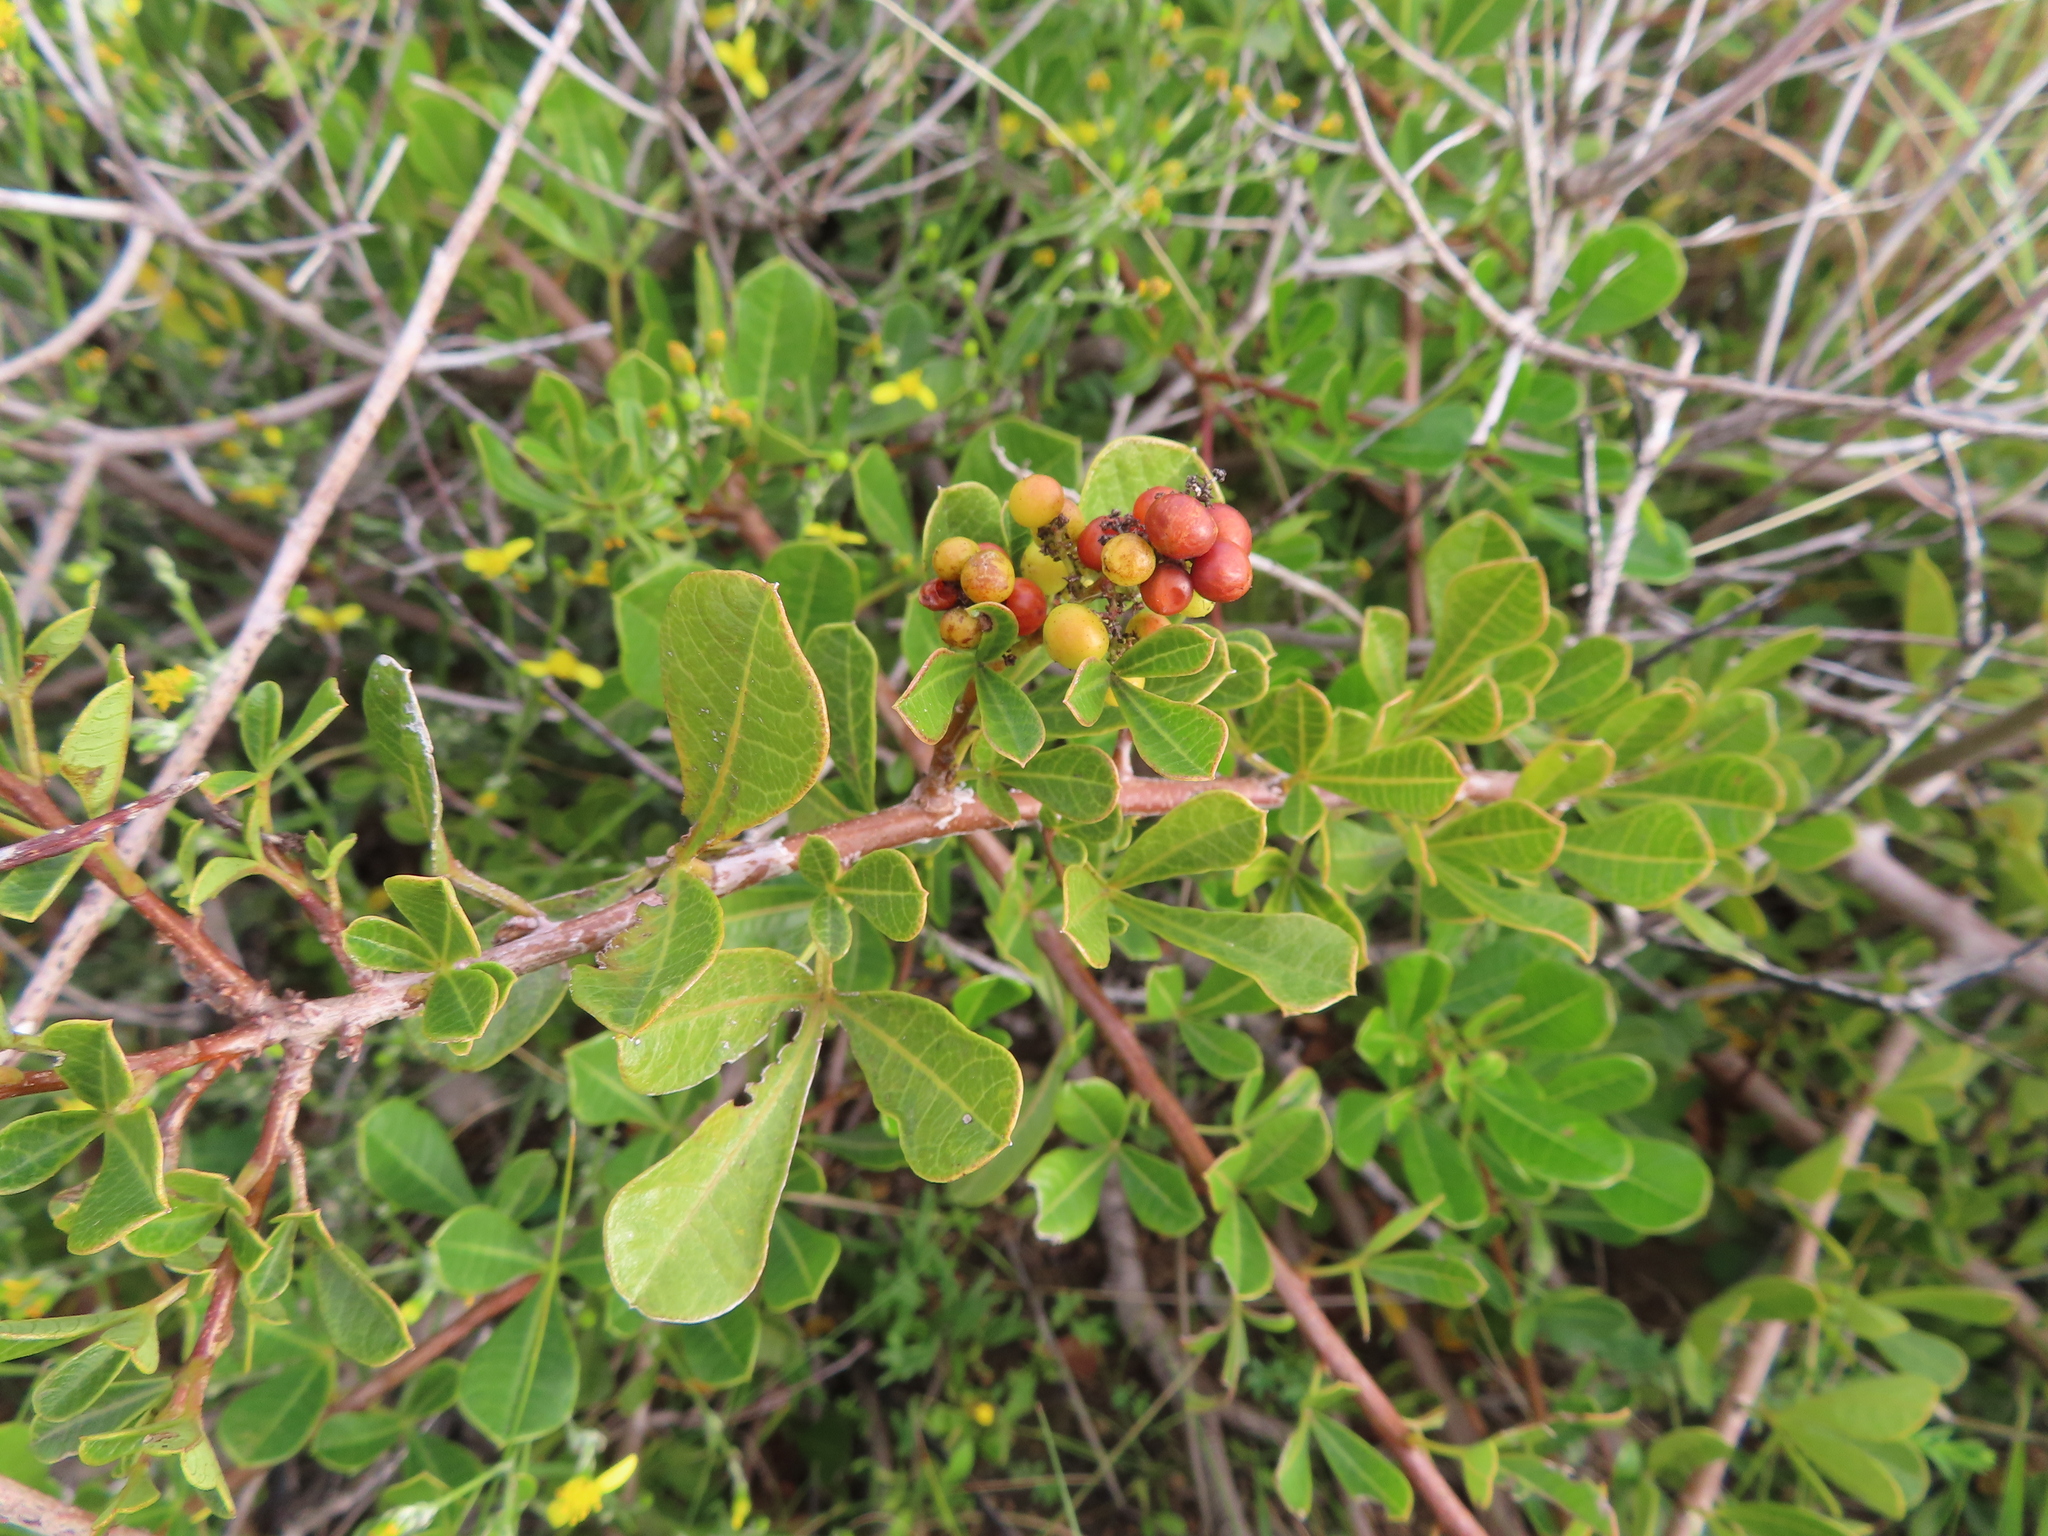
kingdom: Plantae
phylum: Tracheophyta
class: Magnoliopsida
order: Sapindales
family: Anacardiaceae
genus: Searsia
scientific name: Searsia laevigata
